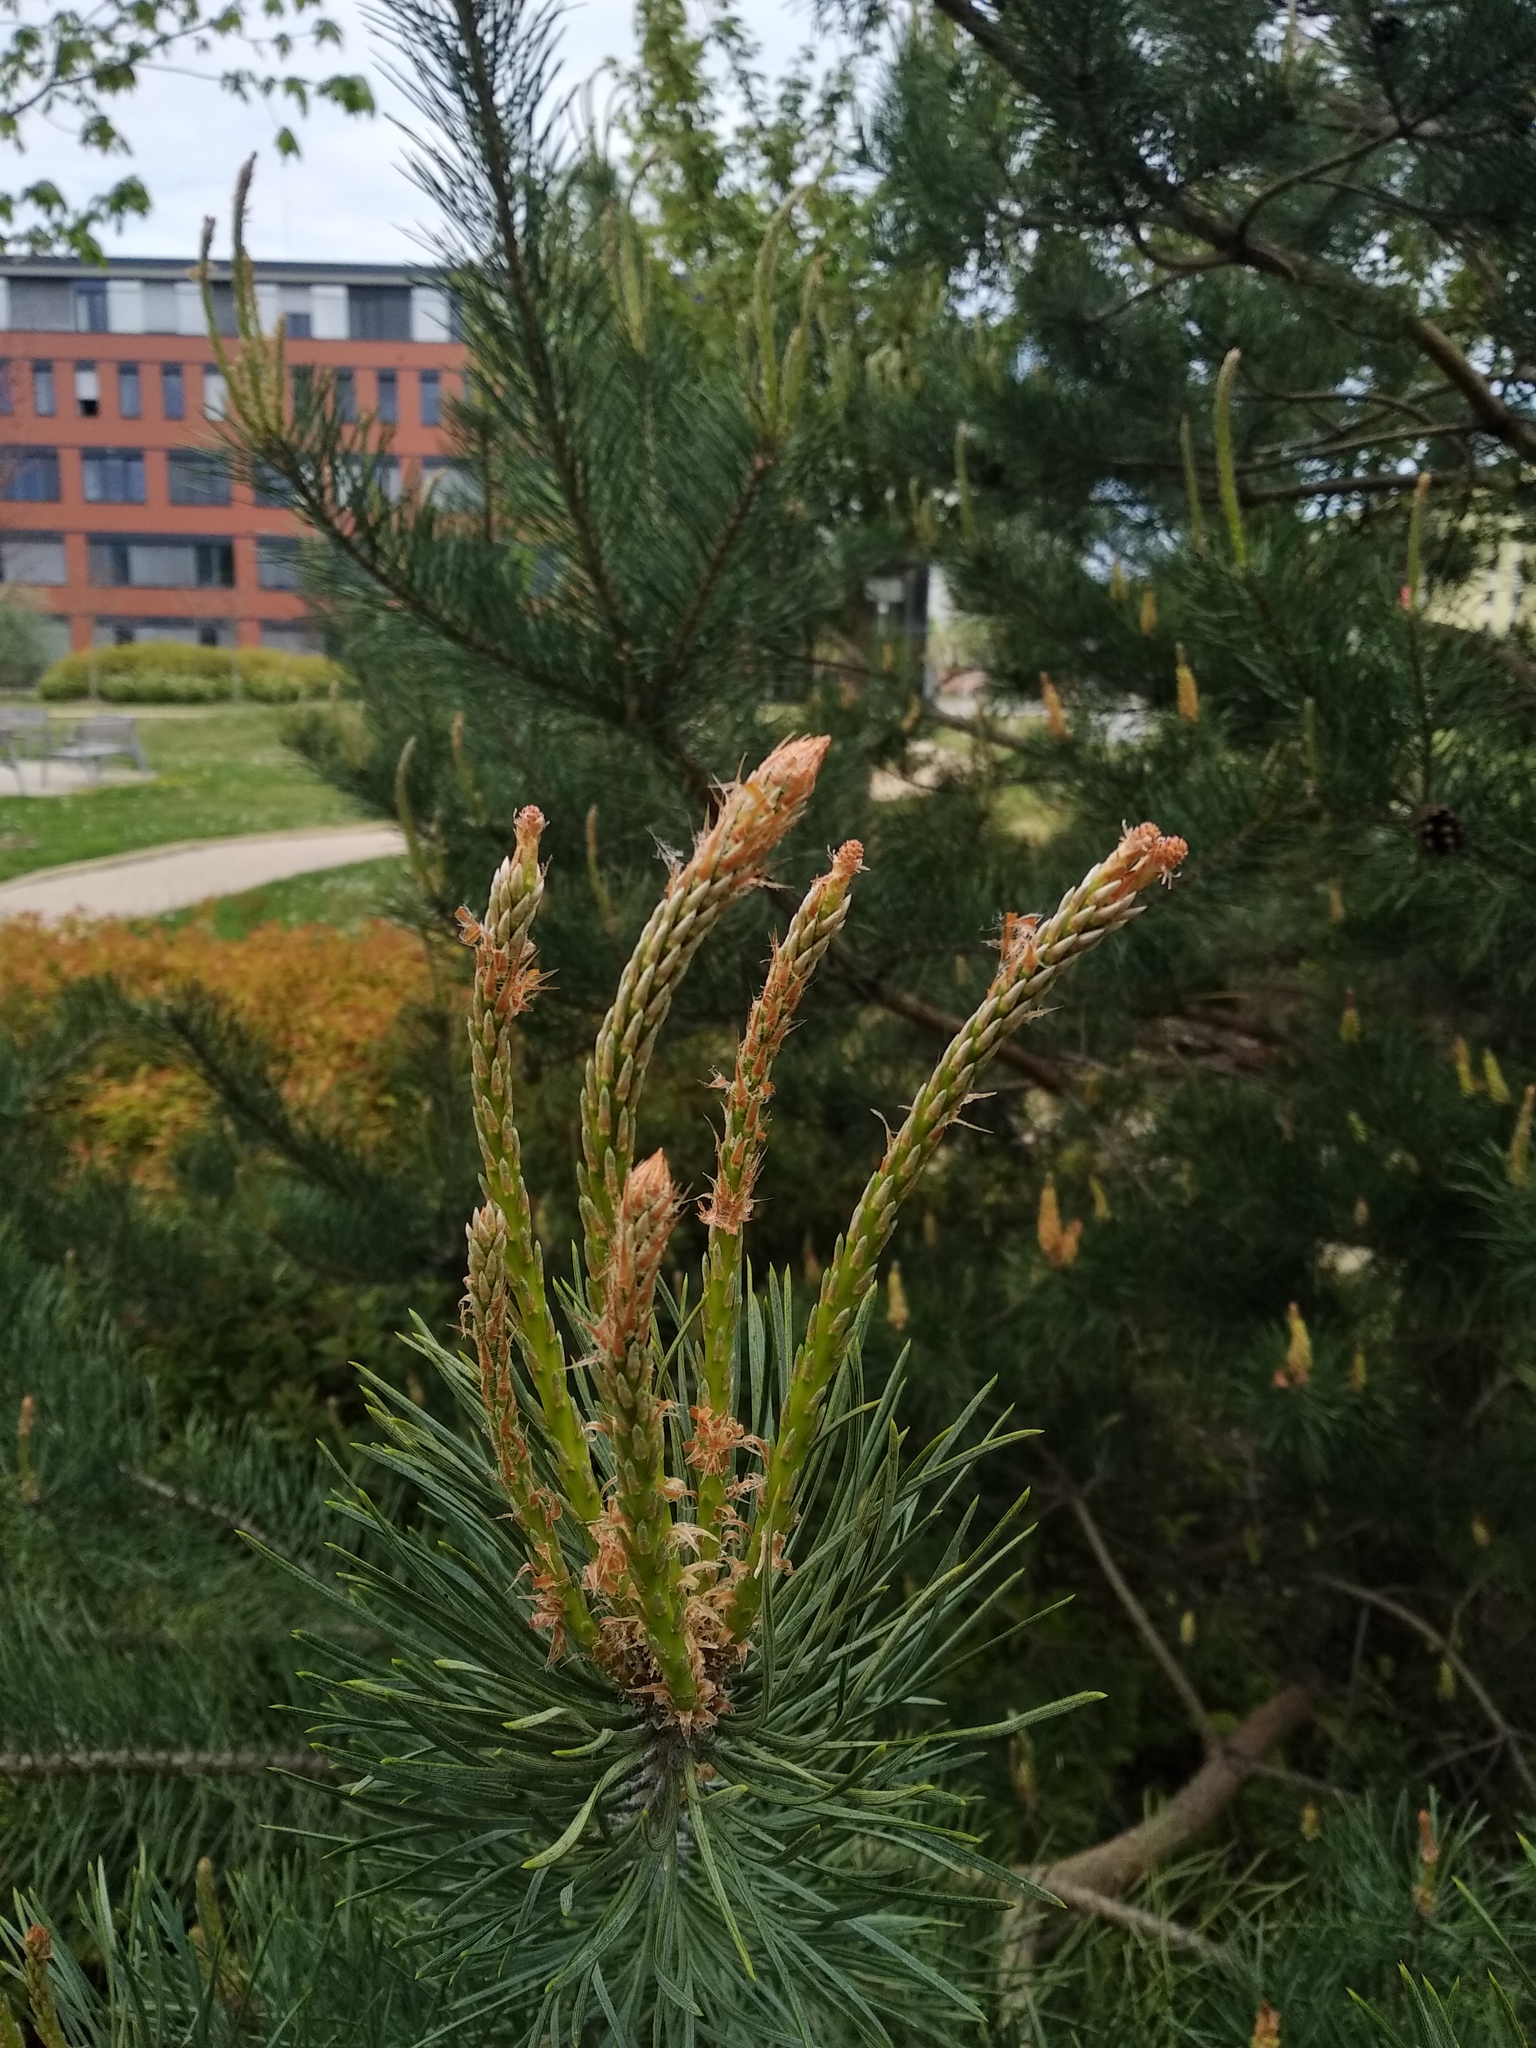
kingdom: Plantae
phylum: Tracheophyta
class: Pinopsida
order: Pinales
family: Pinaceae
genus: Pinus
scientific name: Pinus sylvestris
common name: Scots pine
